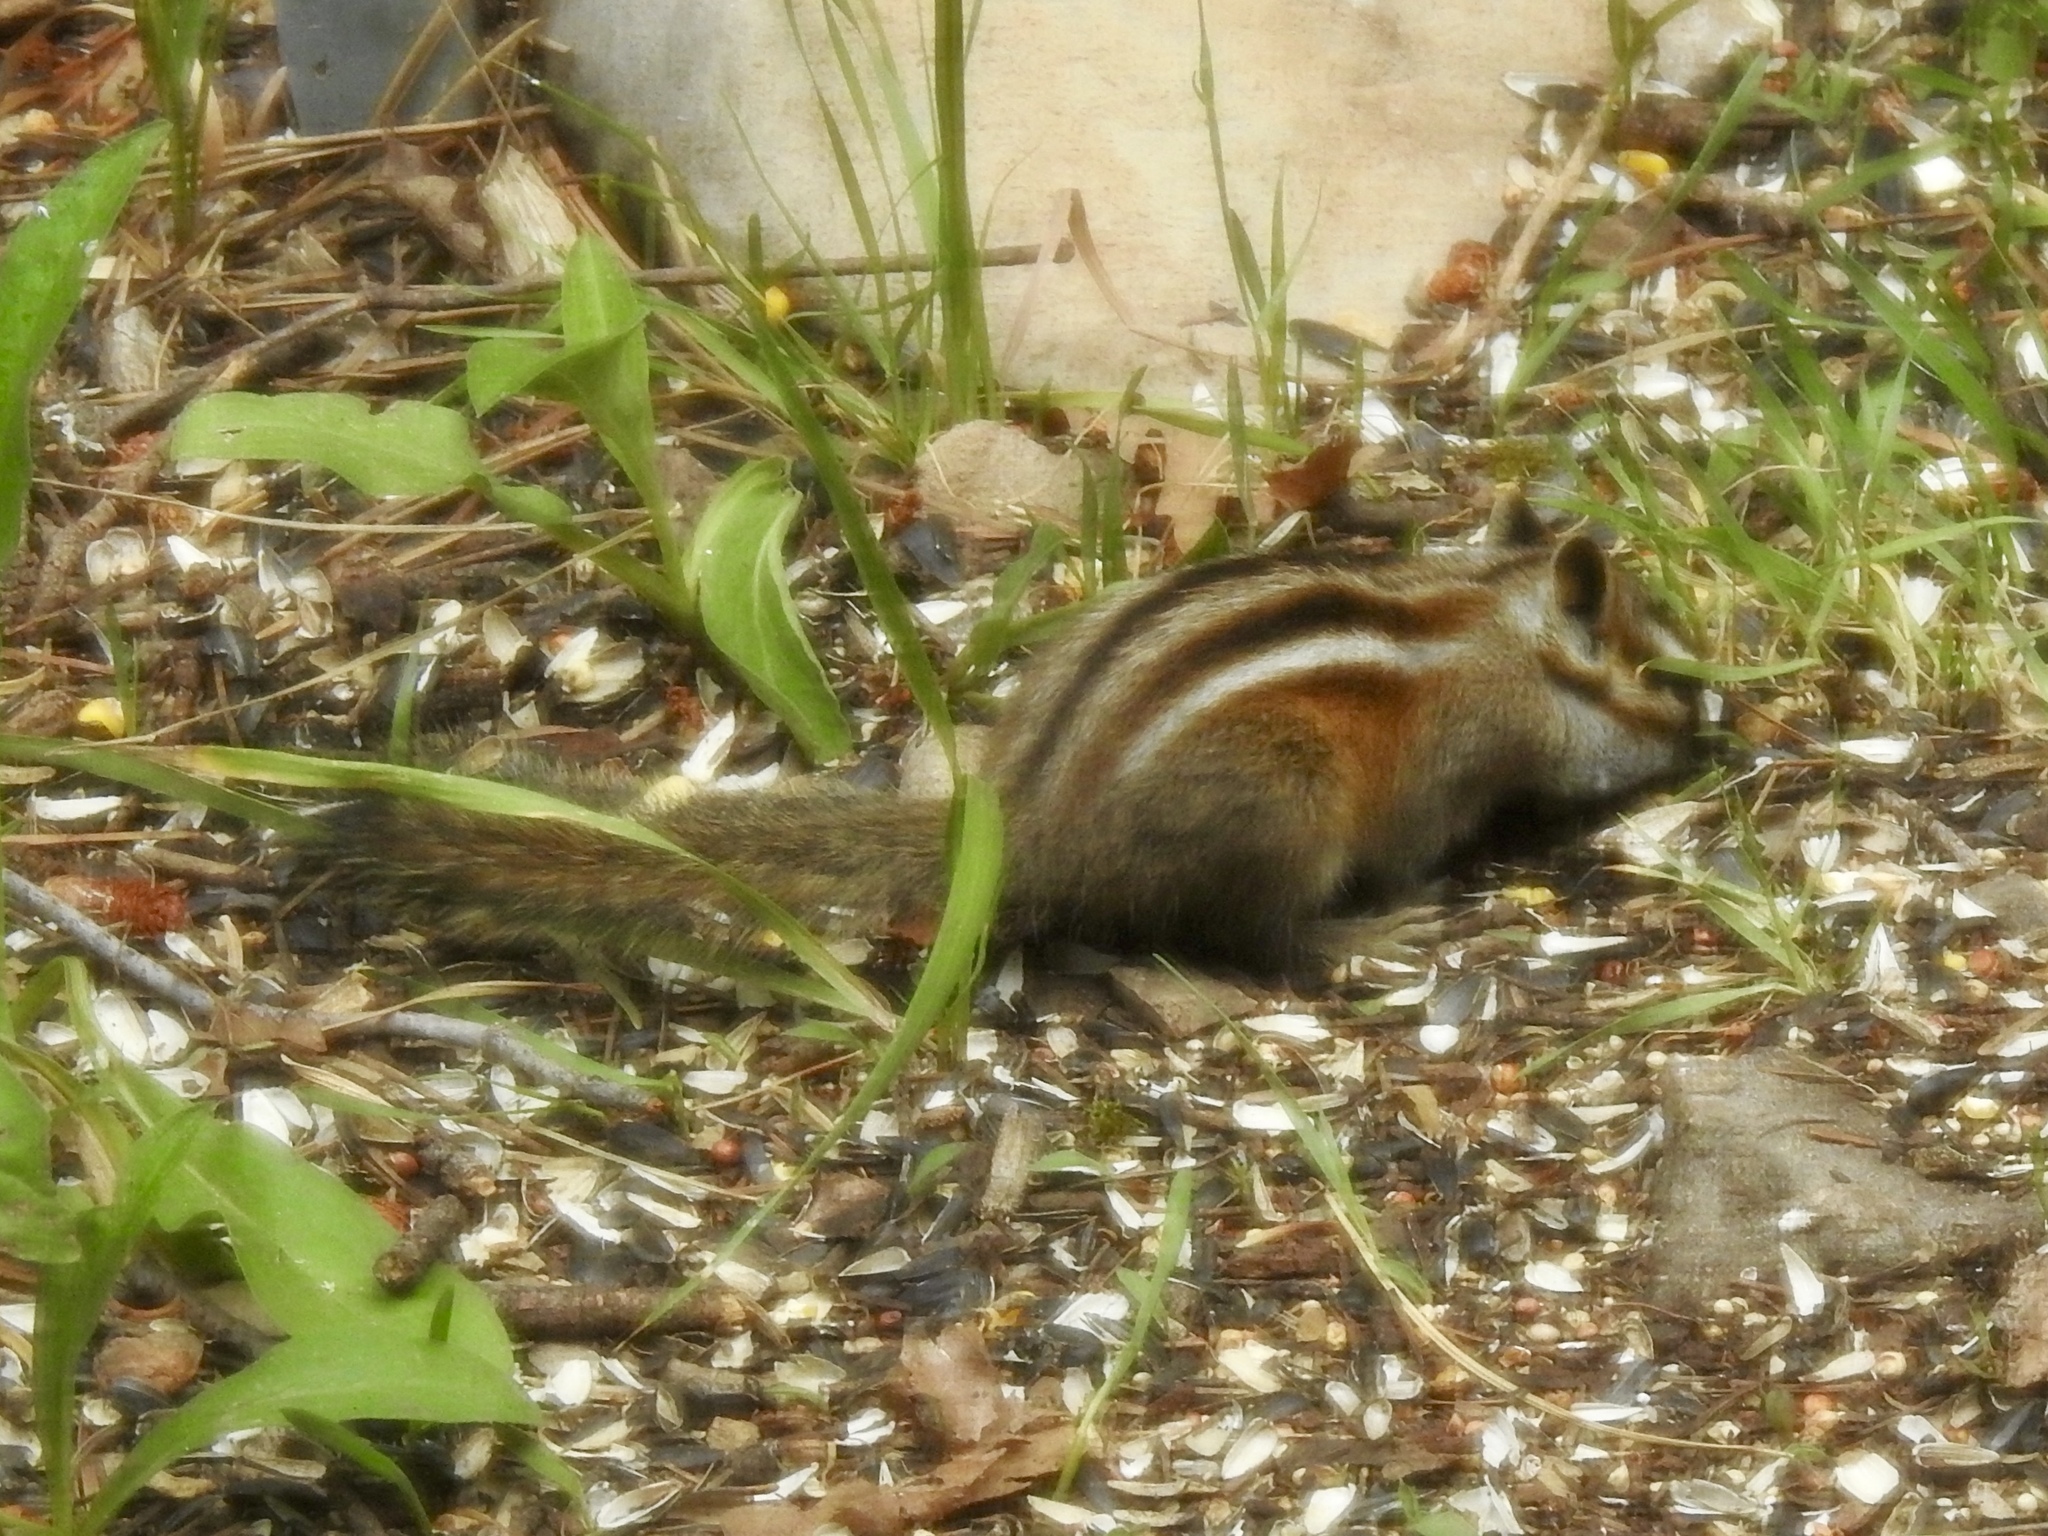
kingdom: Animalia
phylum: Chordata
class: Mammalia
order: Rodentia
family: Sciuridae
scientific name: Sciuridae
